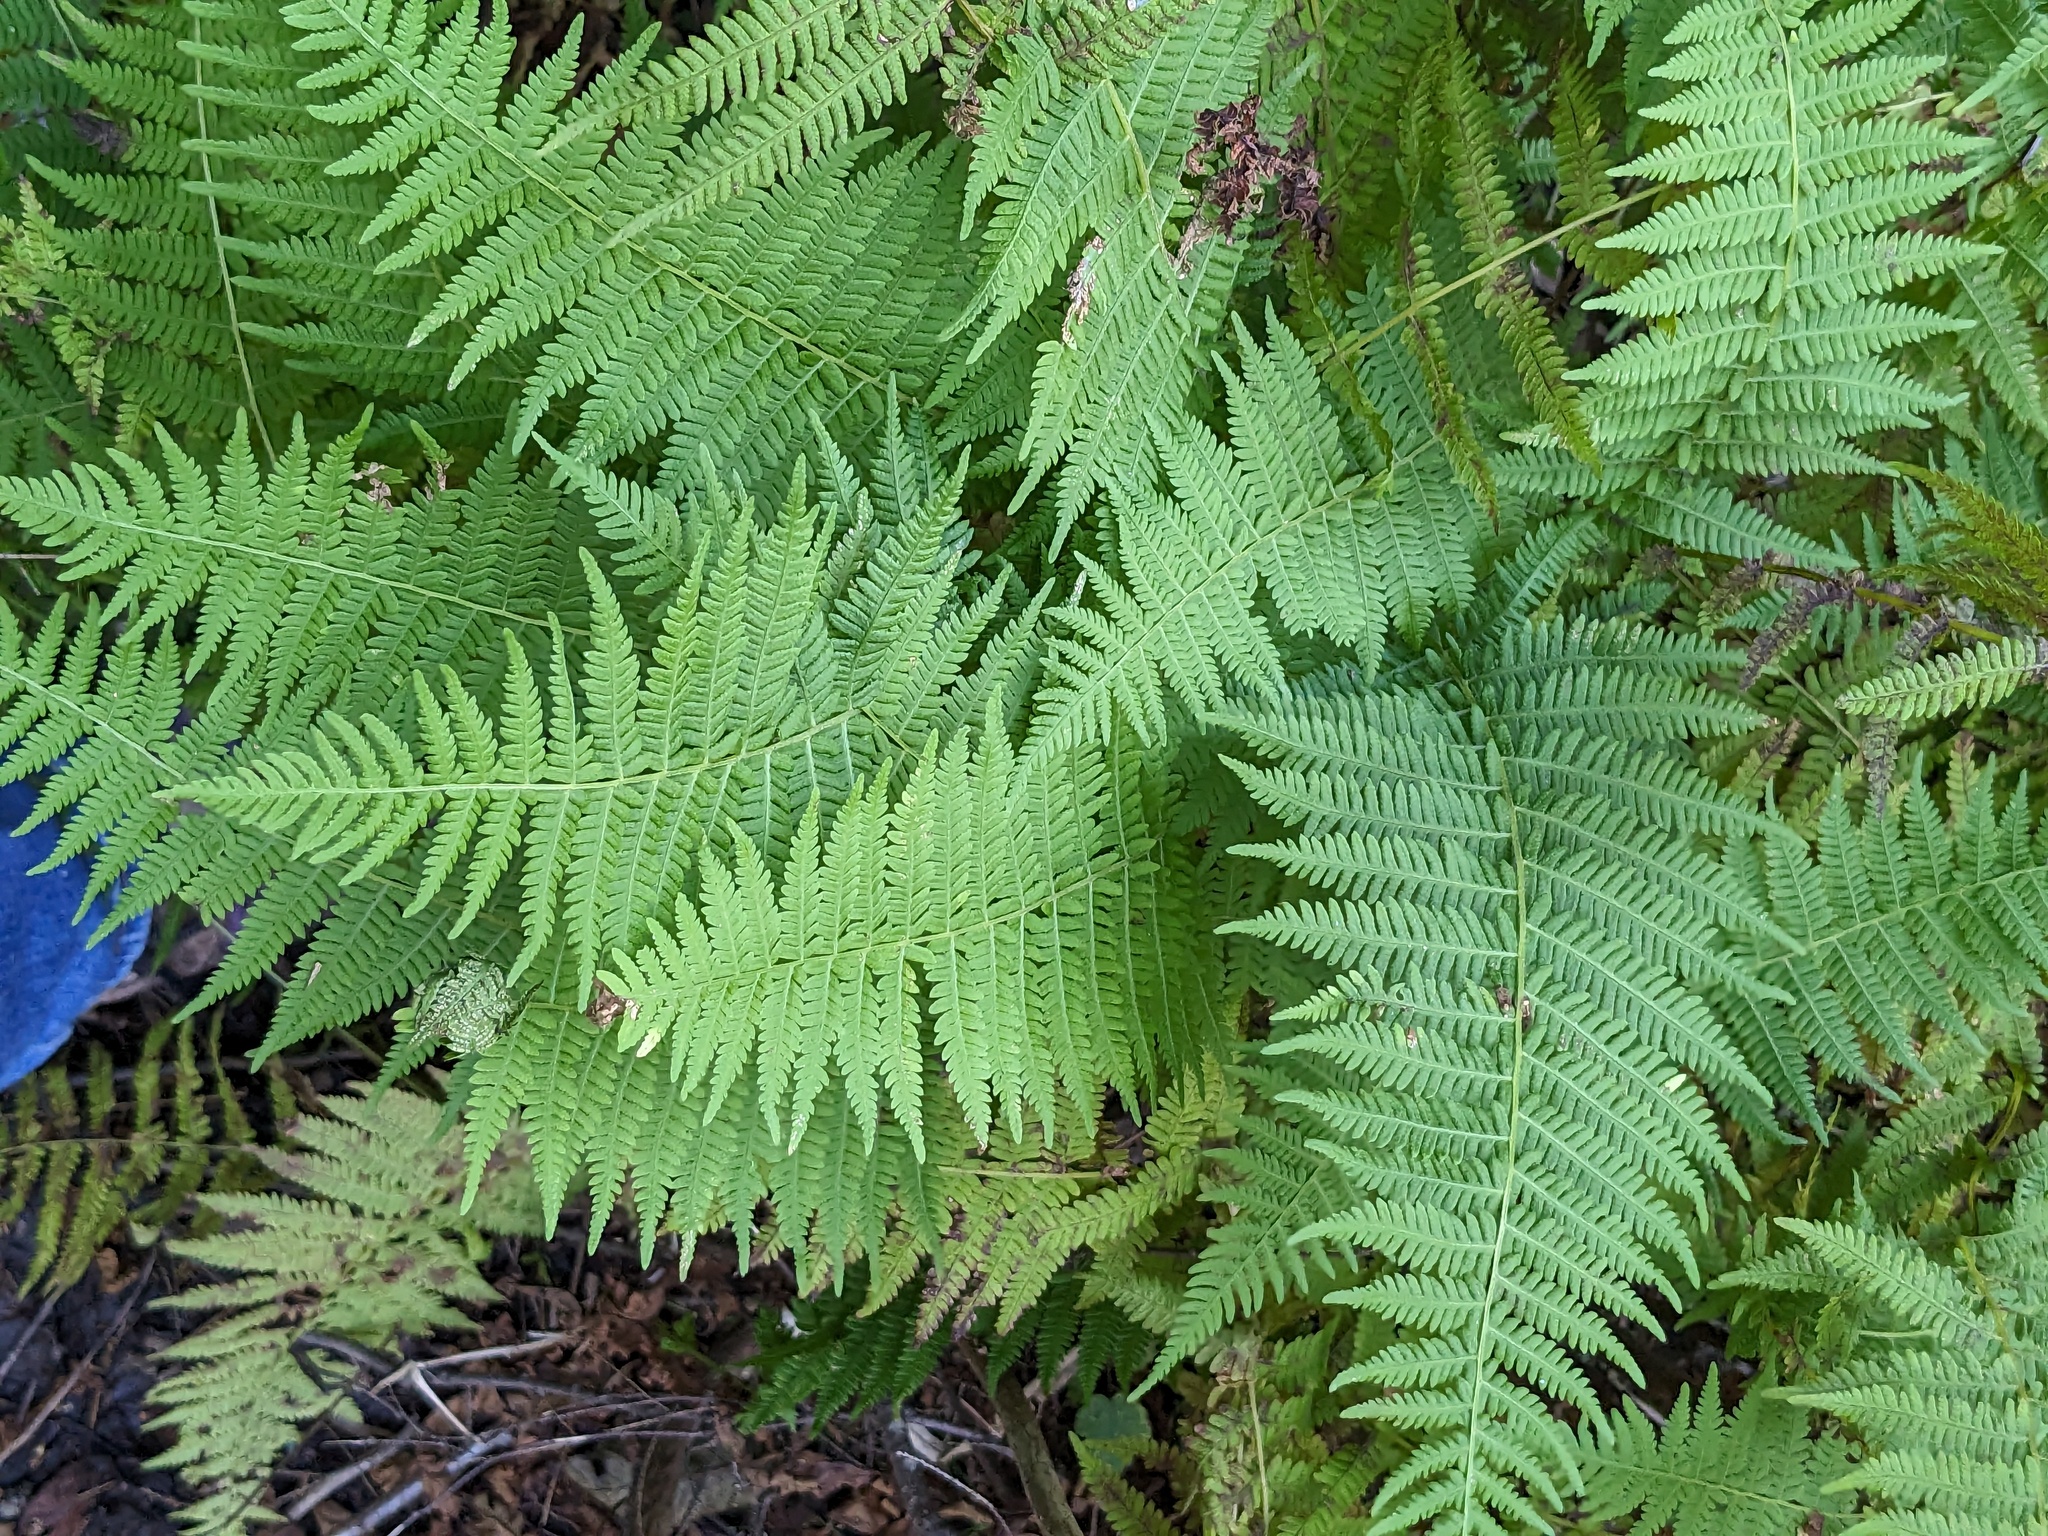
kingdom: Plantae
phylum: Tracheophyta
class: Polypodiopsida
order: Polypodiales
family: Thelypteridaceae
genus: Amauropelta
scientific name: Amauropelta noveboracensis
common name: New york fern
